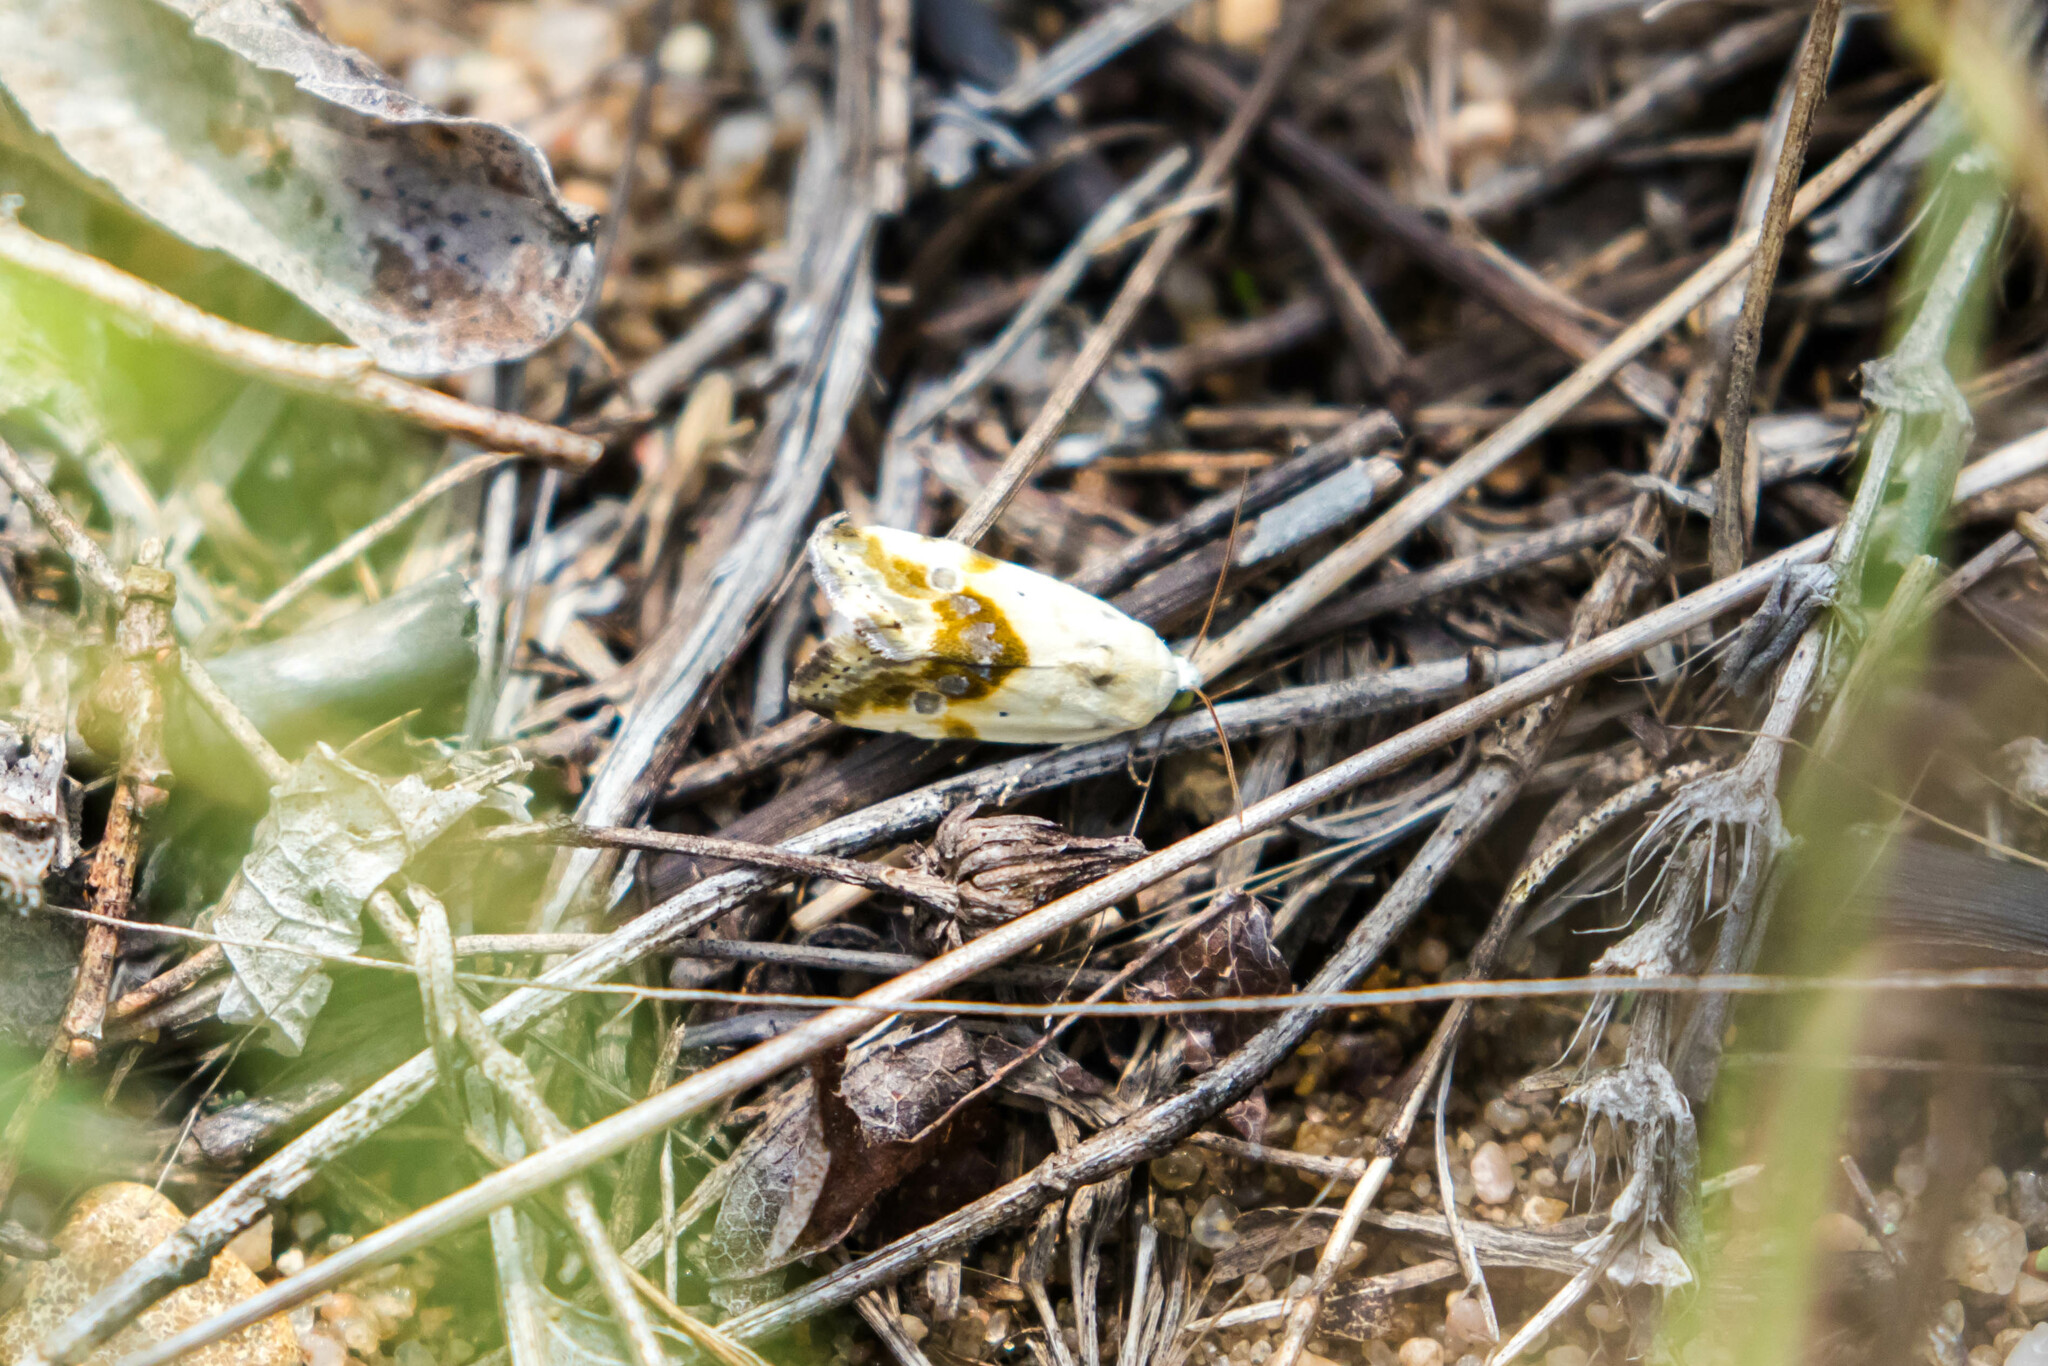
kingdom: Animalia
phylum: Arthropoda
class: Insecta
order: Lepidoptera
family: Noctuidae
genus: Acontia
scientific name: Acontia candefacta
